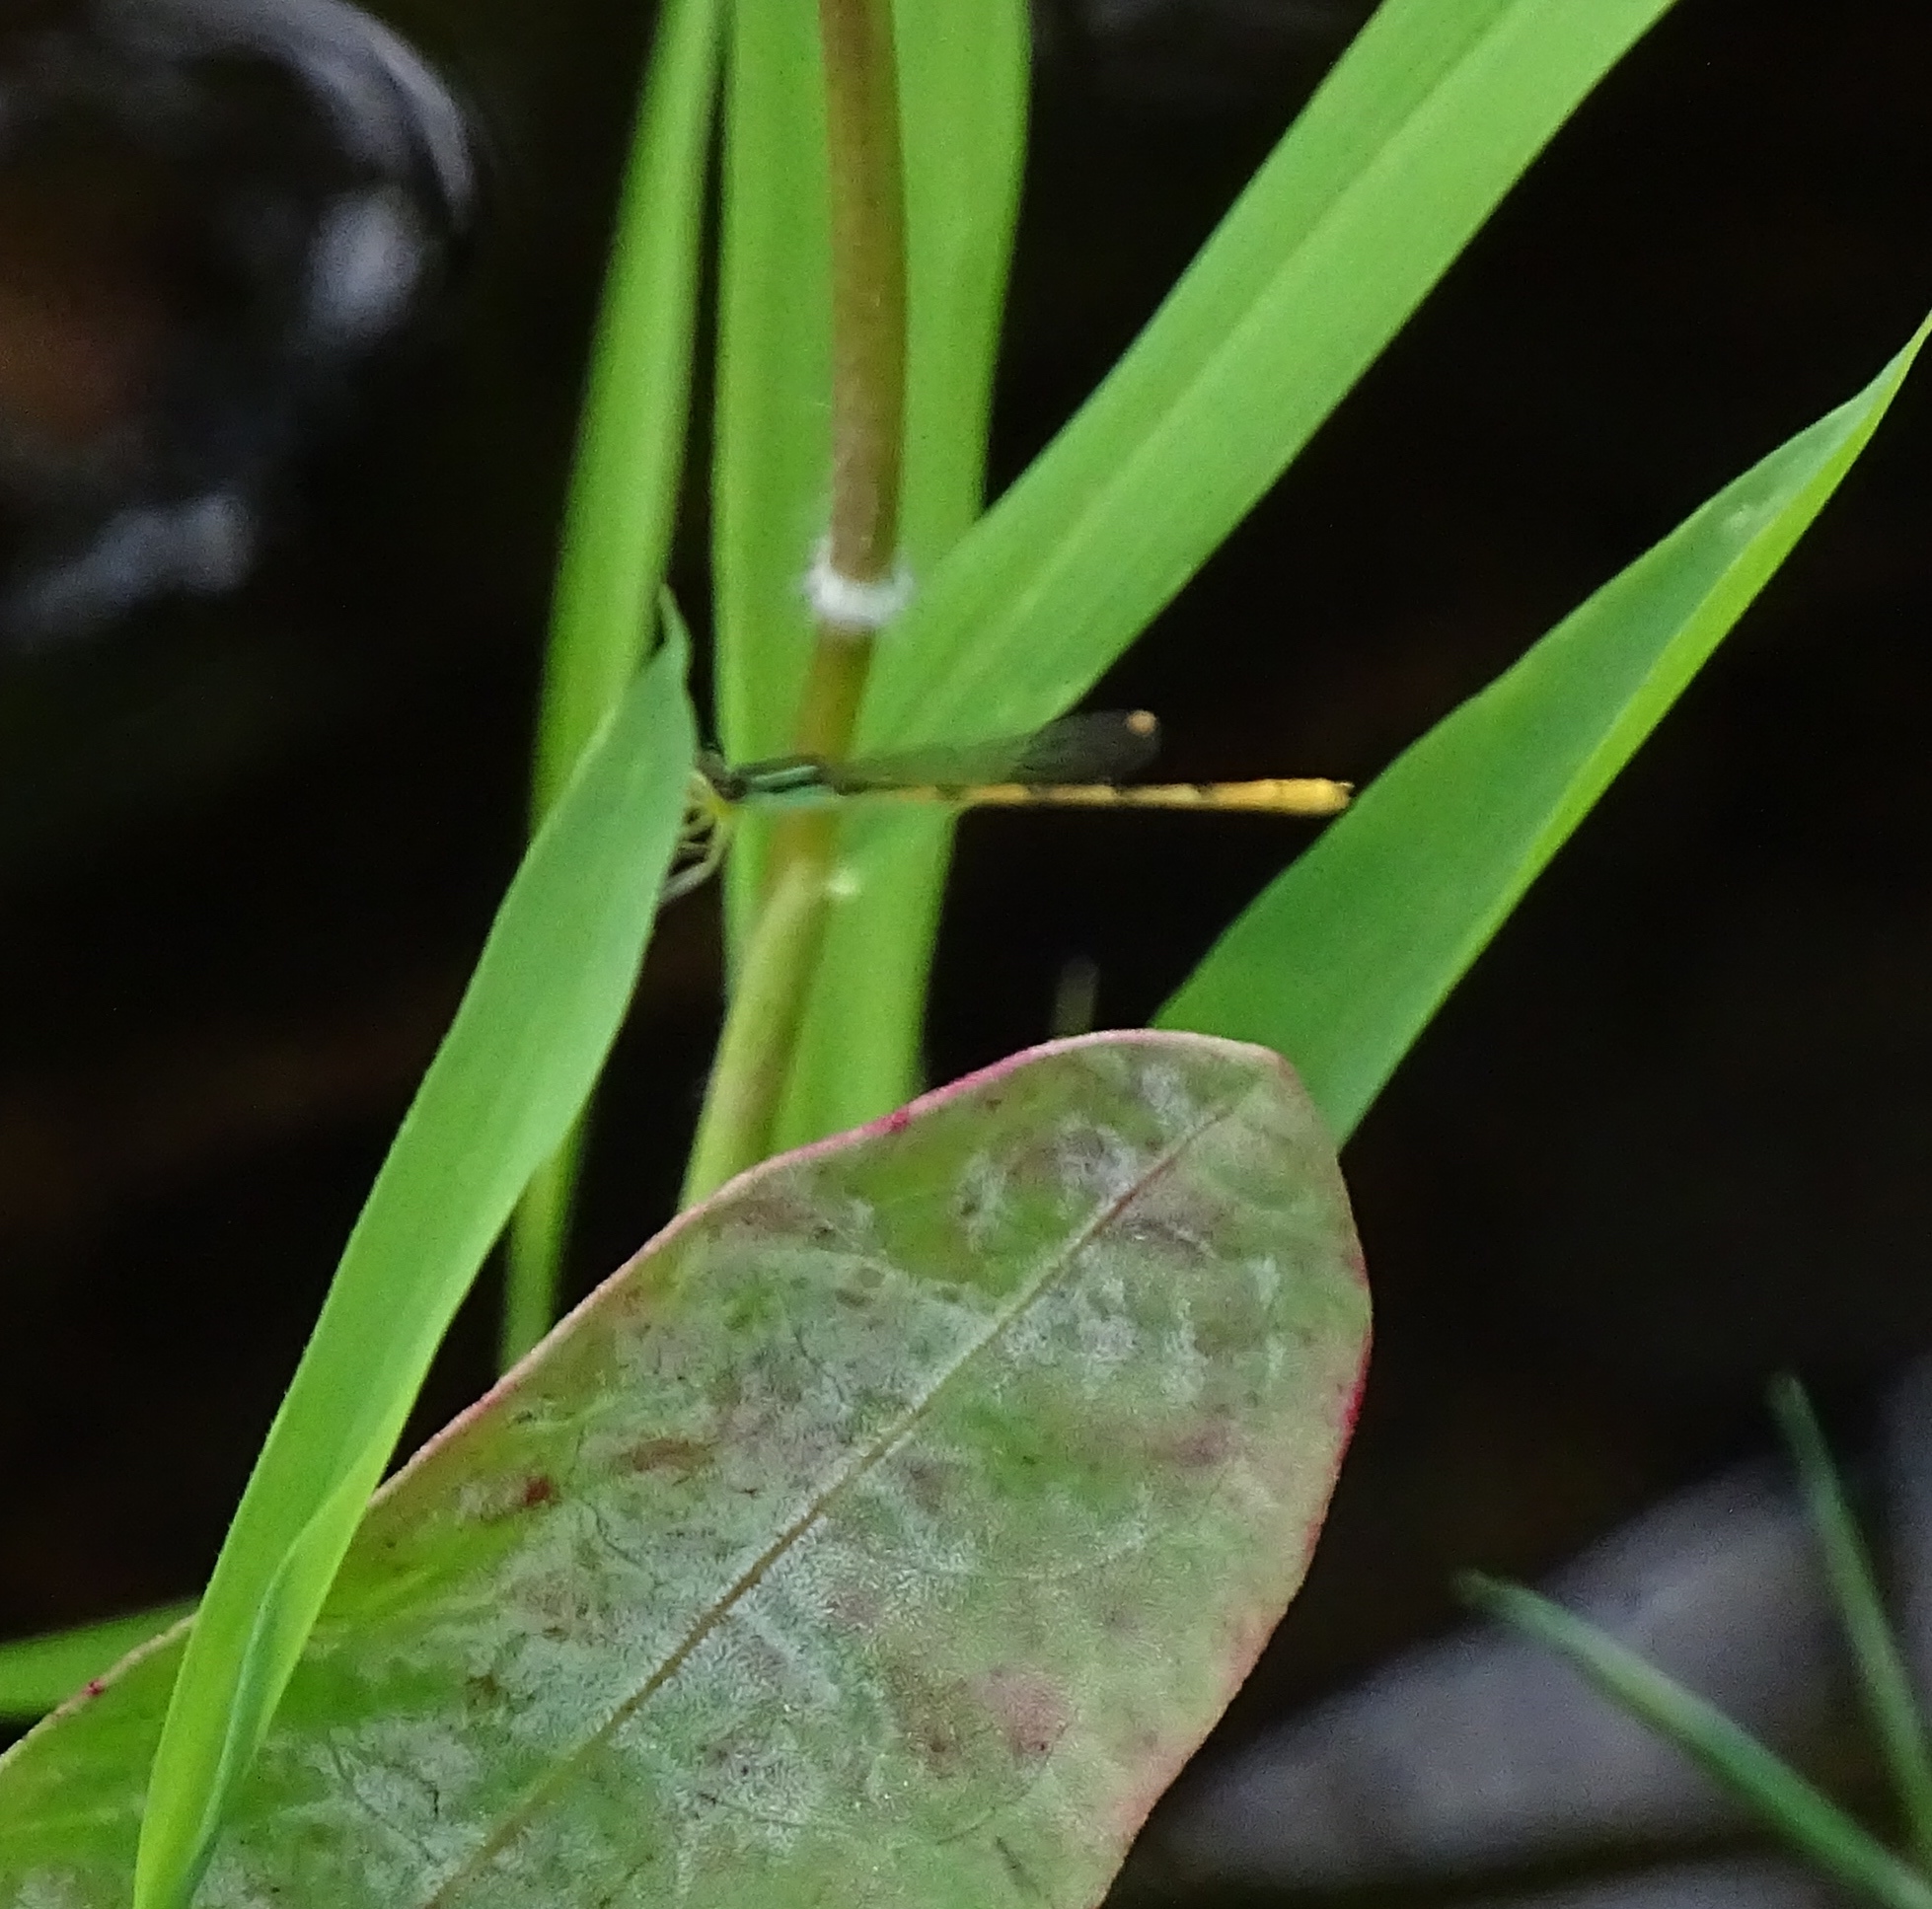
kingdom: Animalia
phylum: Arthropoda
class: Insecta
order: Odonata
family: Coenagrionidae
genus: Ischnura
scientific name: Ischnura hastata
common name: Citrine forktail
